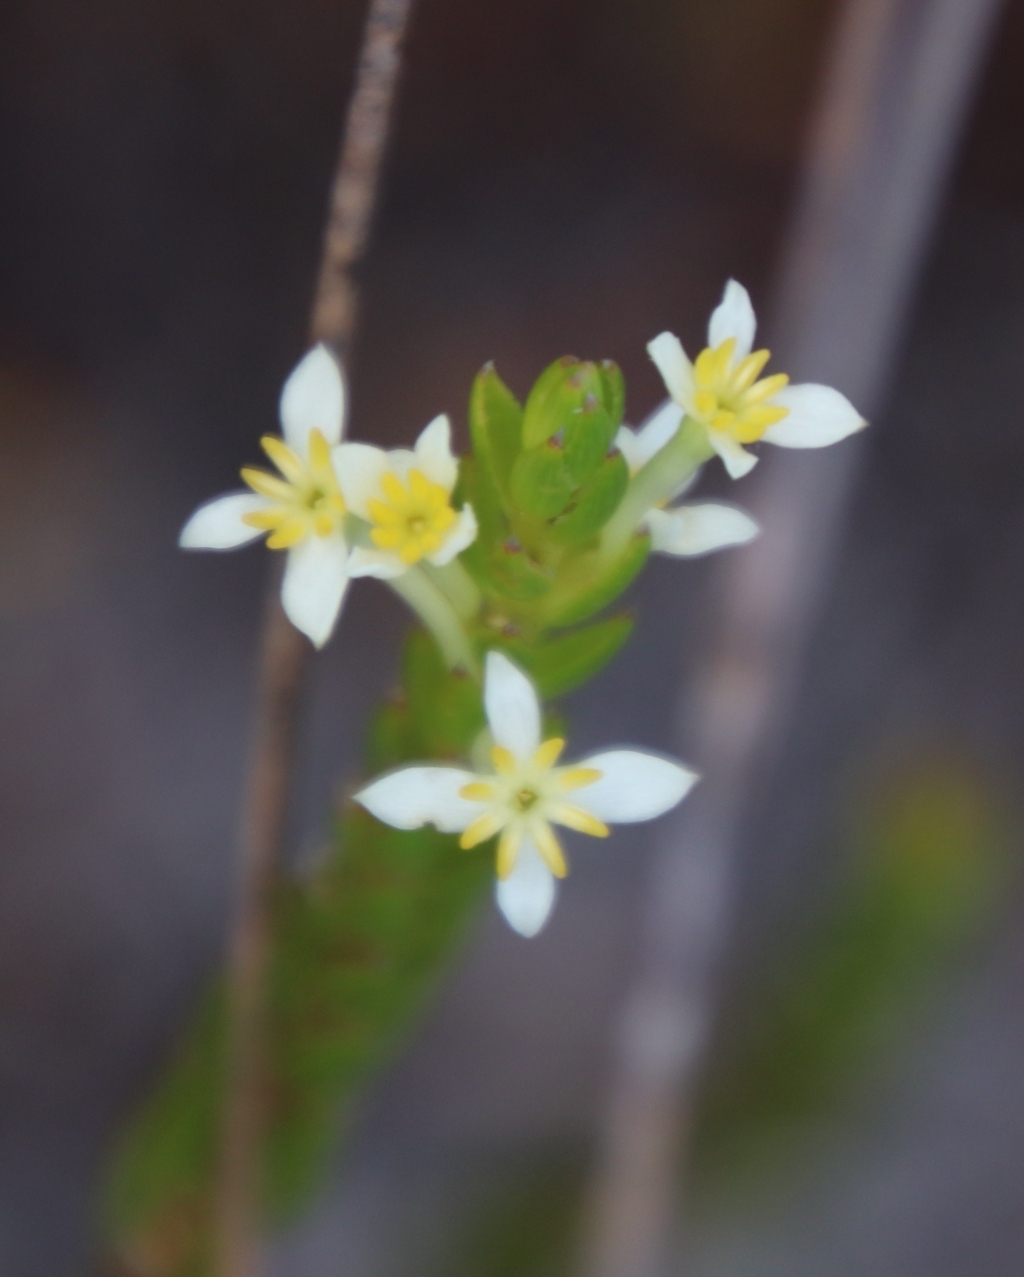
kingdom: Plantae
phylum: Tracheophyta
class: Magnoliopsida
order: Malvales
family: Thymelaeaceae
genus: Struthiola
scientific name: Struthiola ciliata
